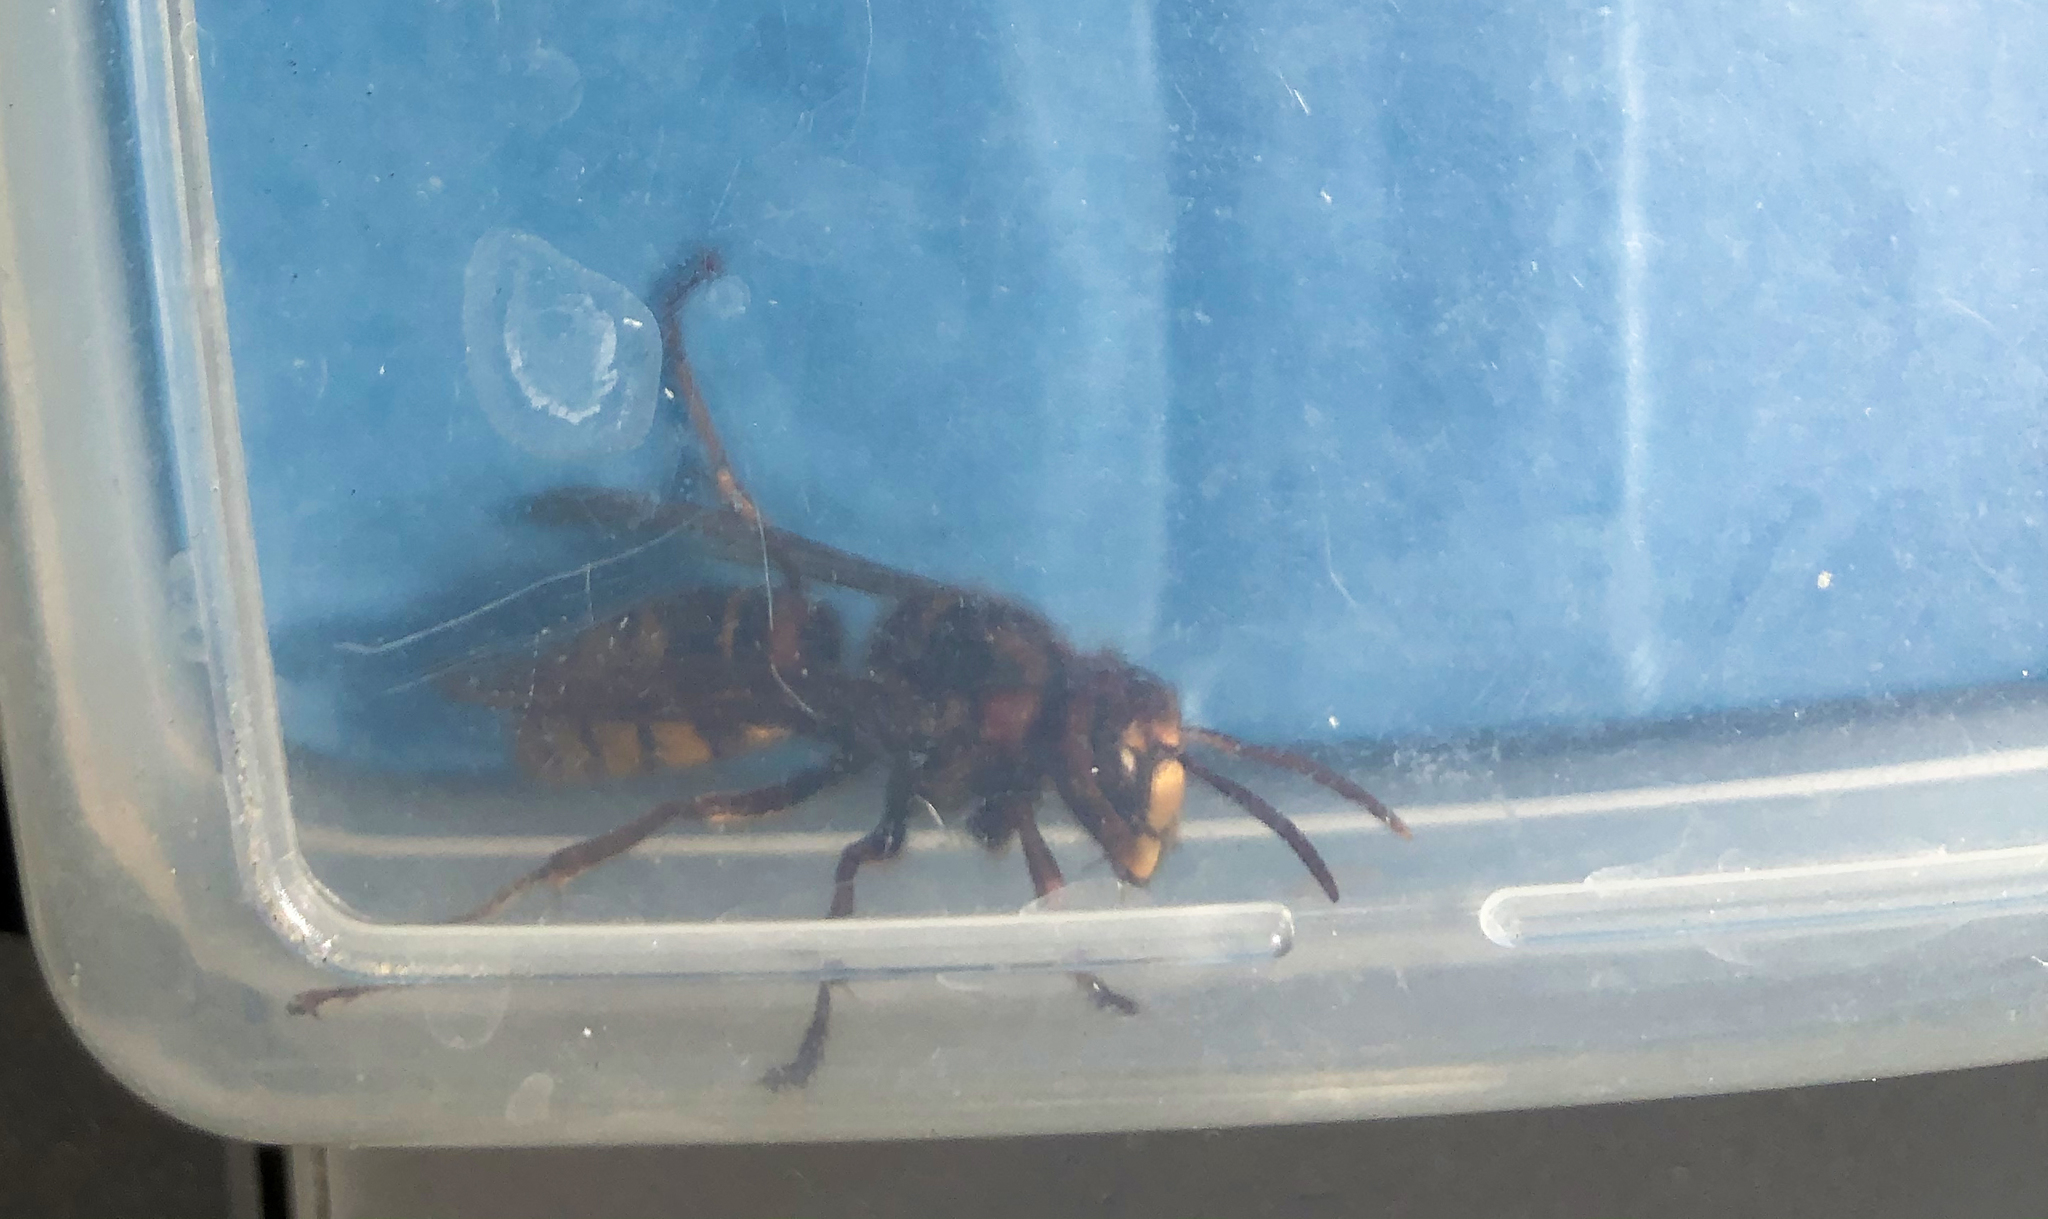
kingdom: Animalia
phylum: Arthropoda
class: Insecta
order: Hymenoptera
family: Vespidae
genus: Vespa
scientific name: Vespa crabro
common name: Hornet
